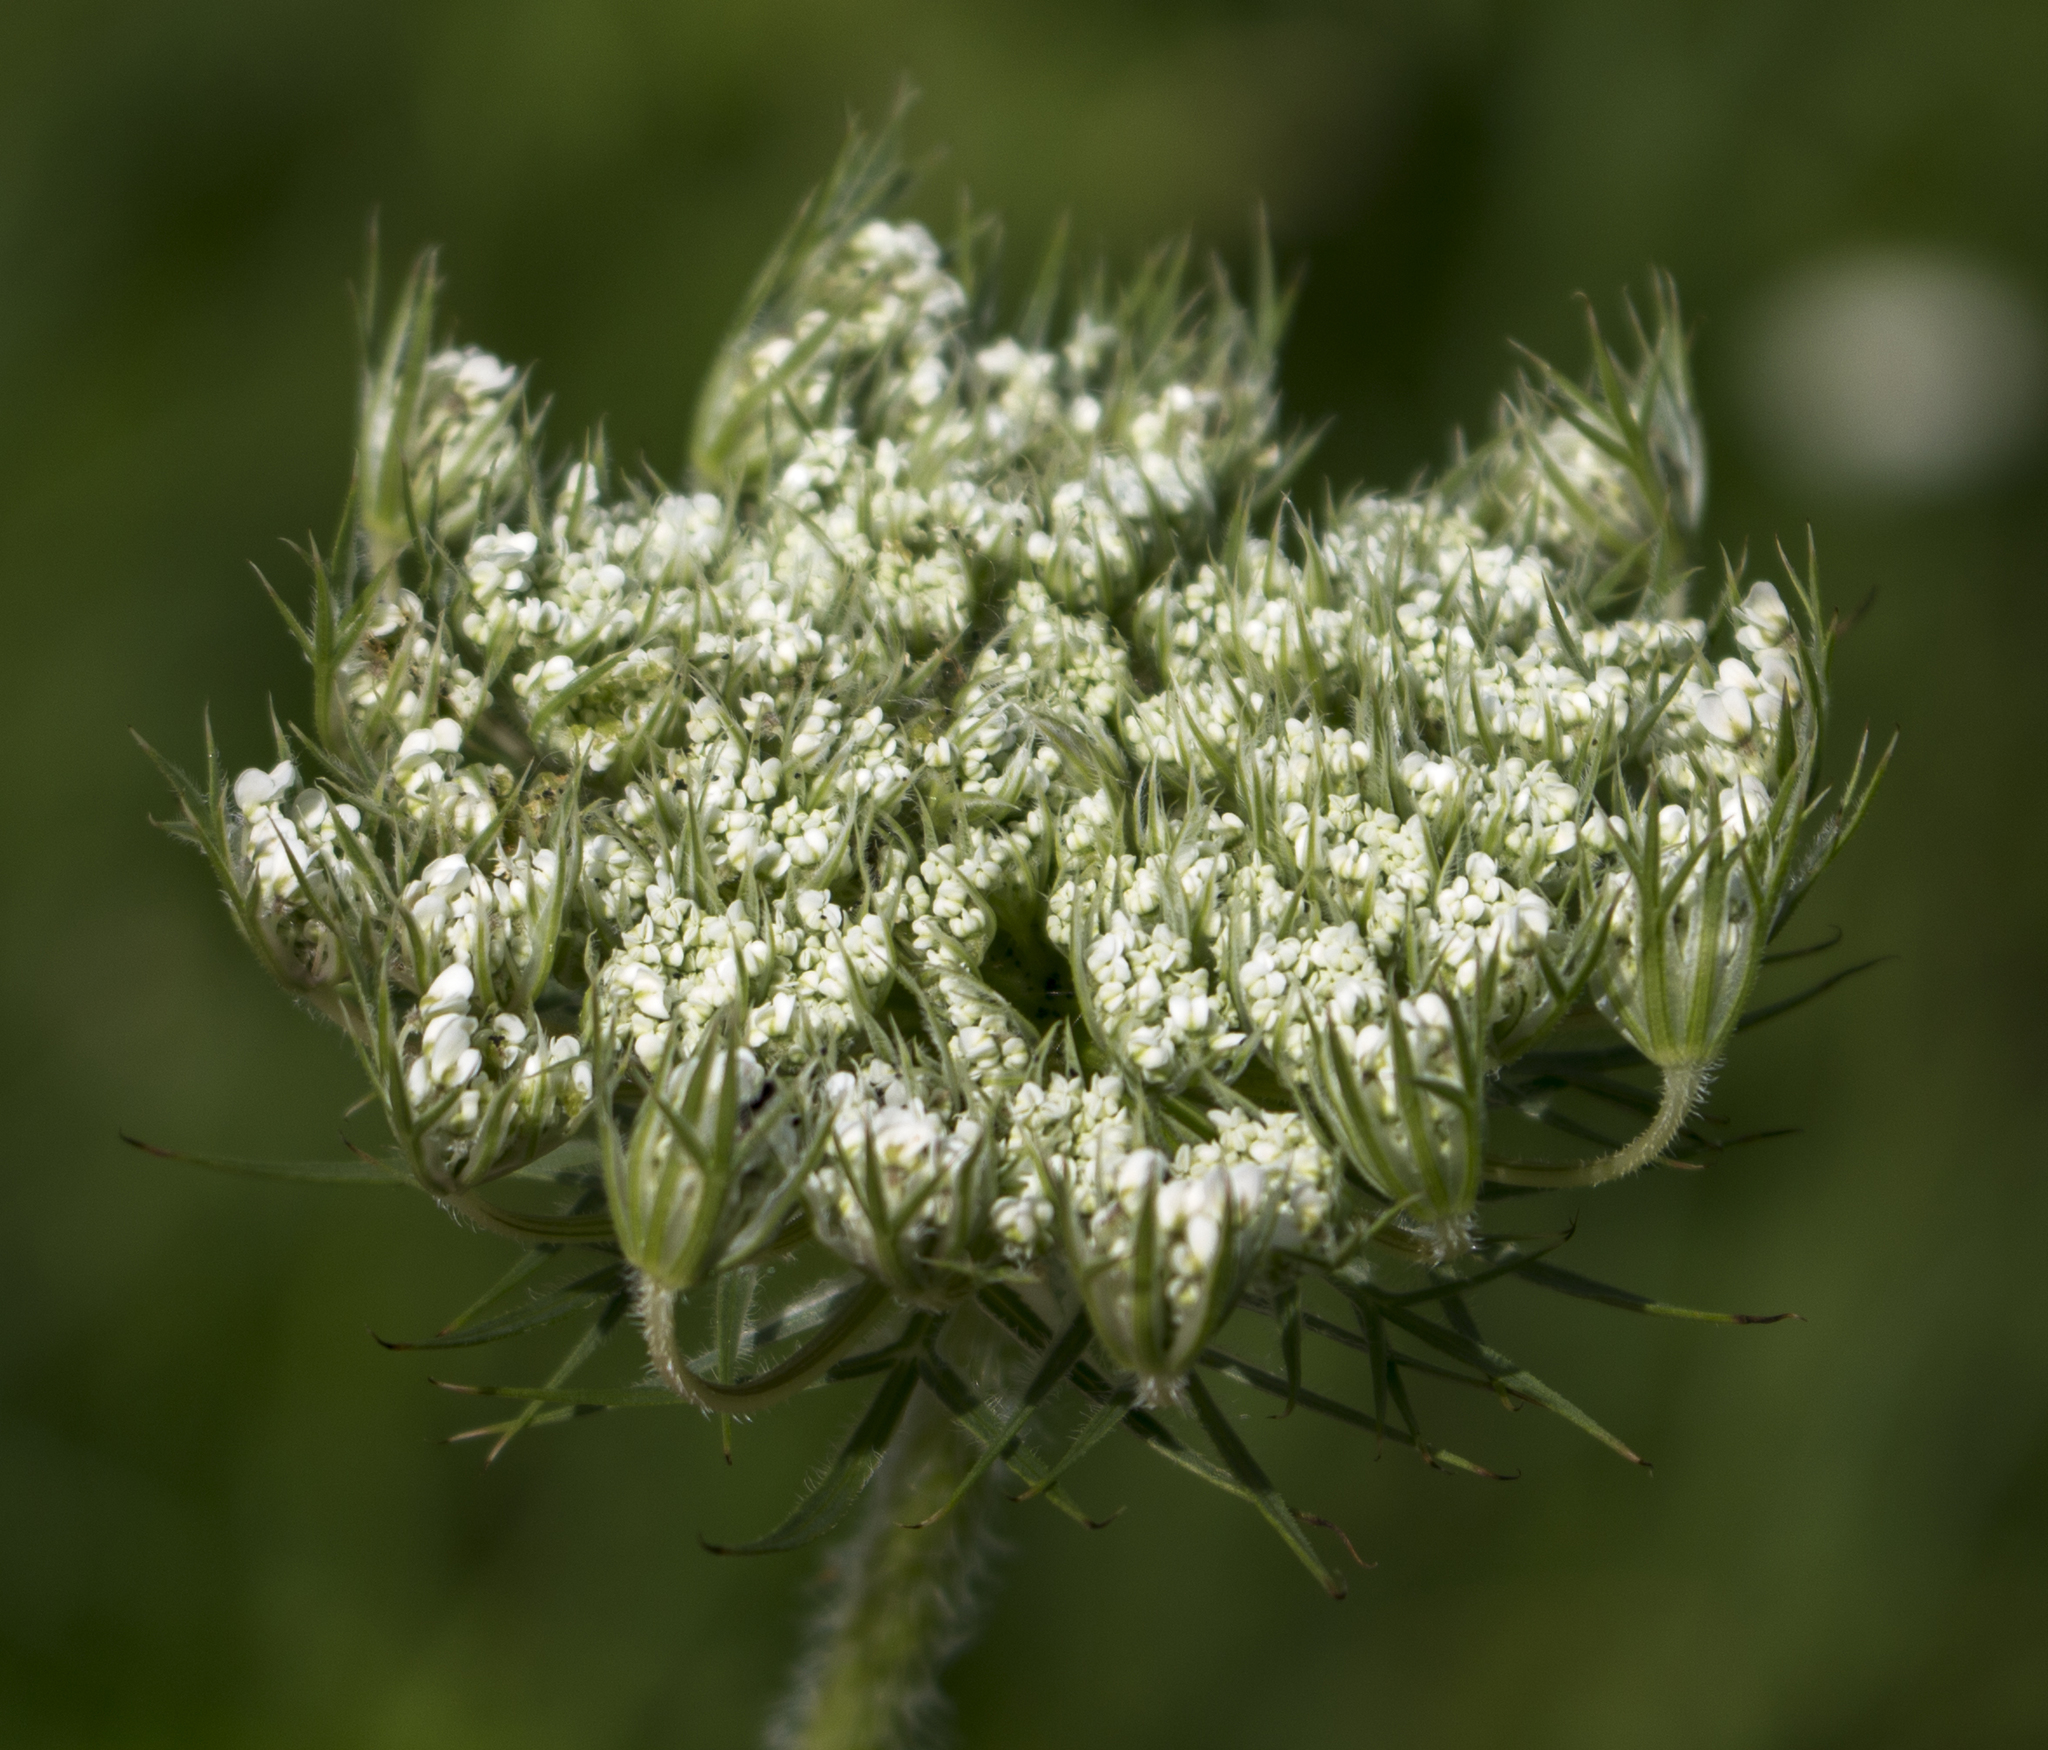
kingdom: Plantae
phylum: Tracheophyta
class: Magnoliopsida
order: Apiales
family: Apiaceae
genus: Daucus
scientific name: Daucus carota
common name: Wild carrot
